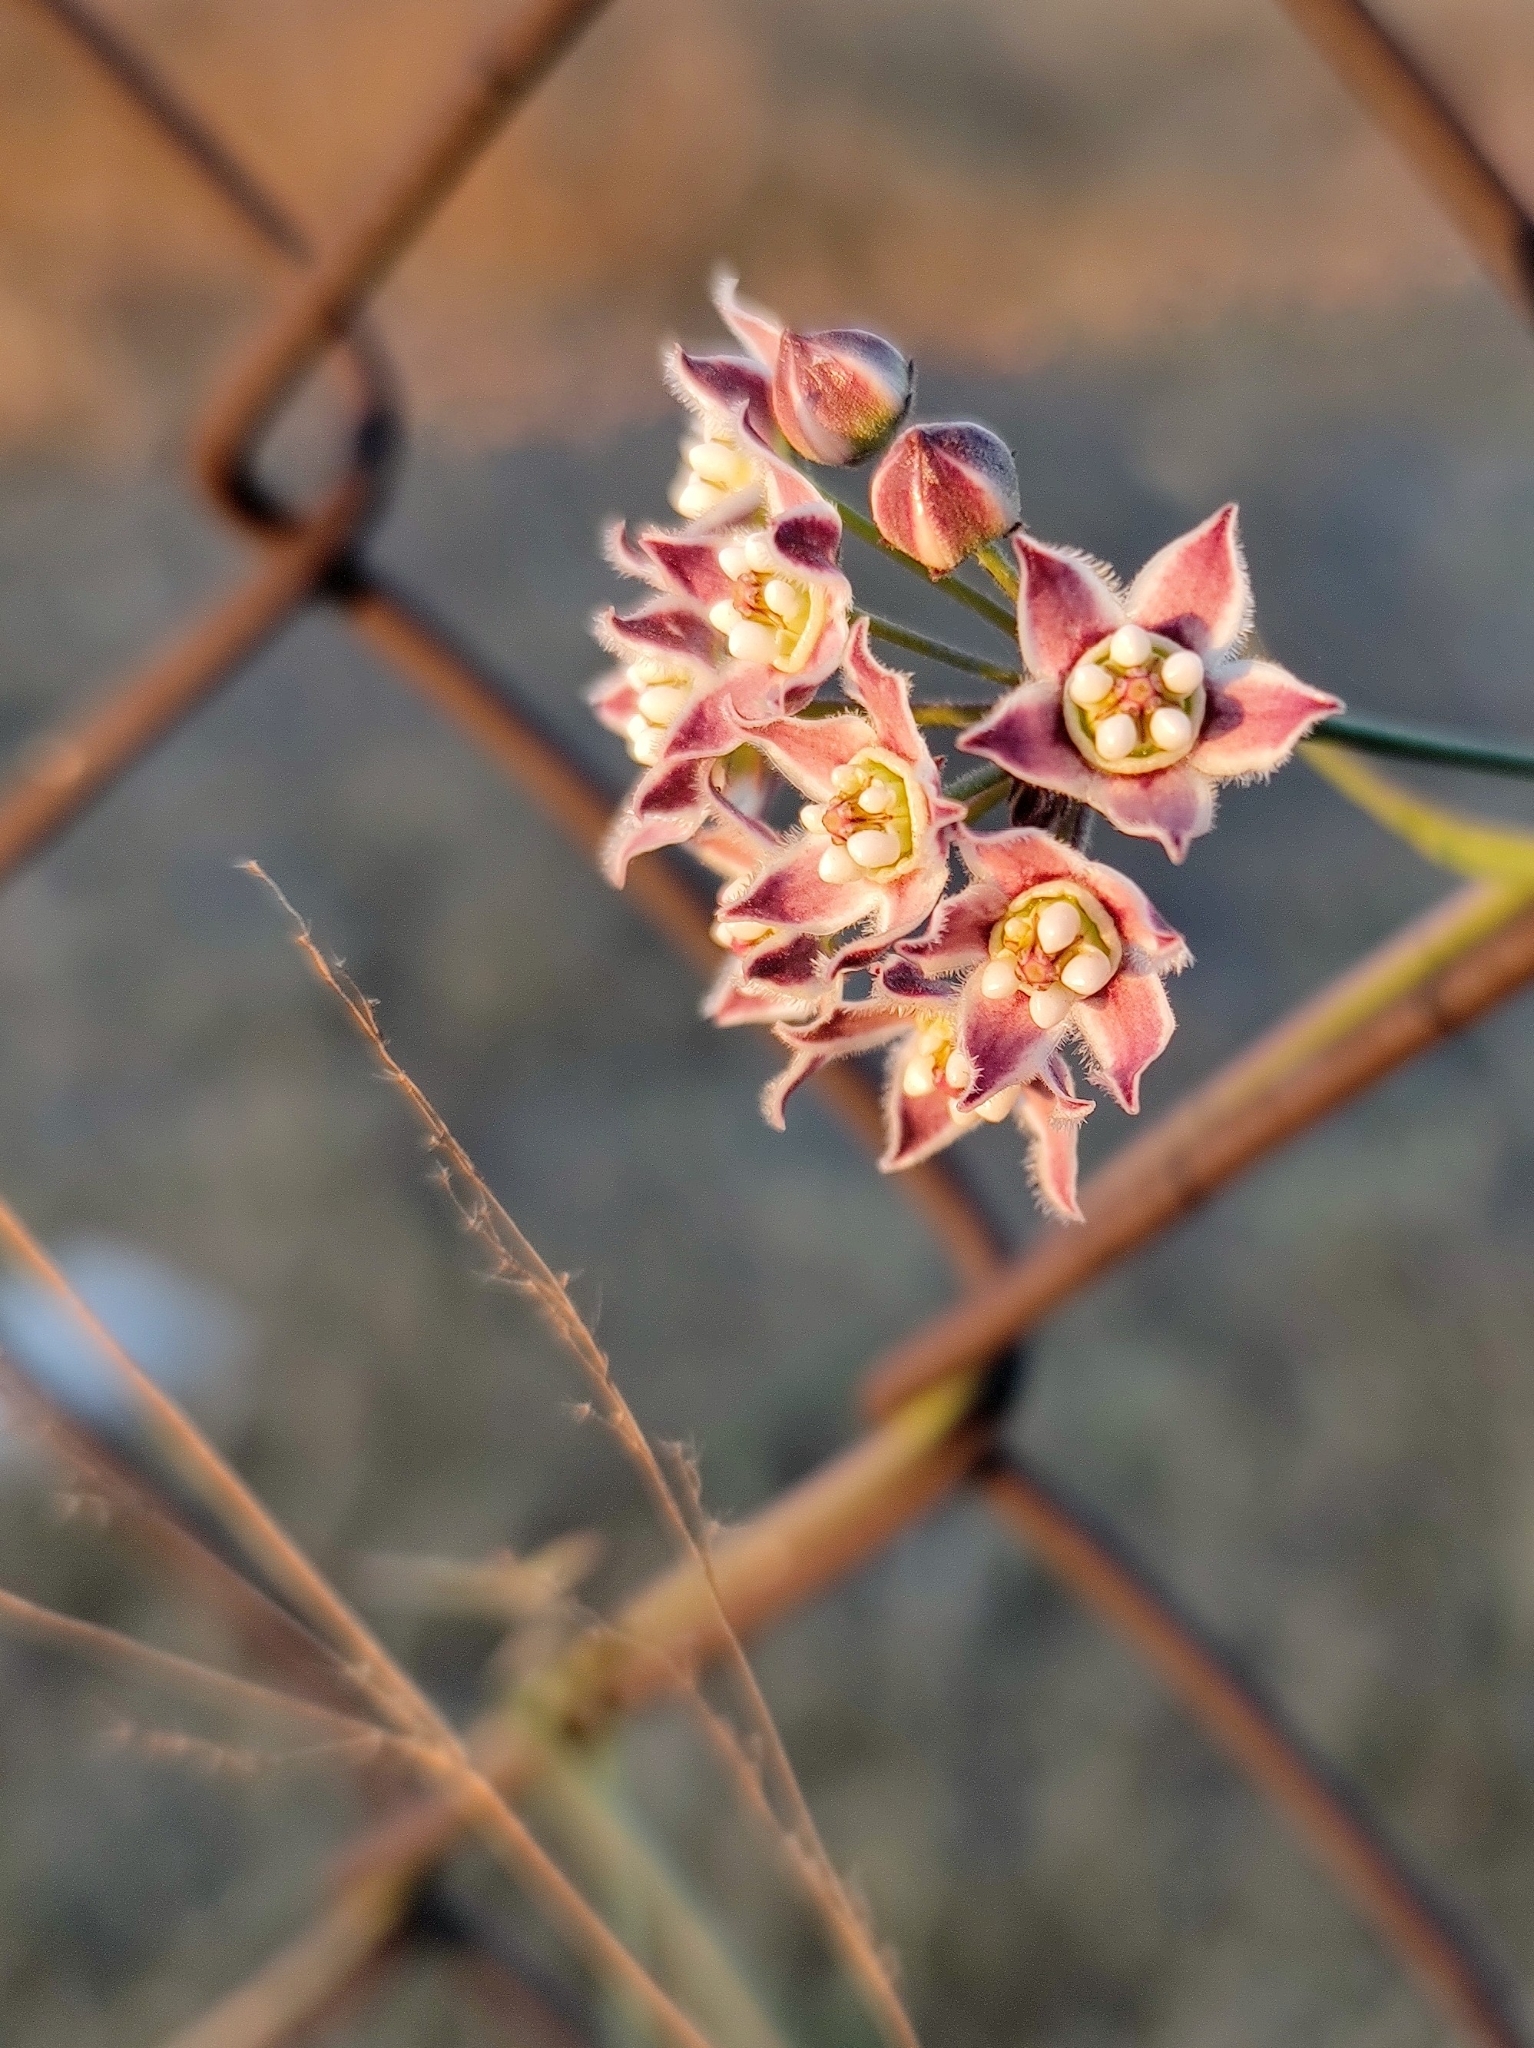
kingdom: Plantae
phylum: Tracheophyta
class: Magnoliopsida
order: Gentianales
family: Apocynaceae
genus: Funastrum
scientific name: Funastrum heterophyllum
